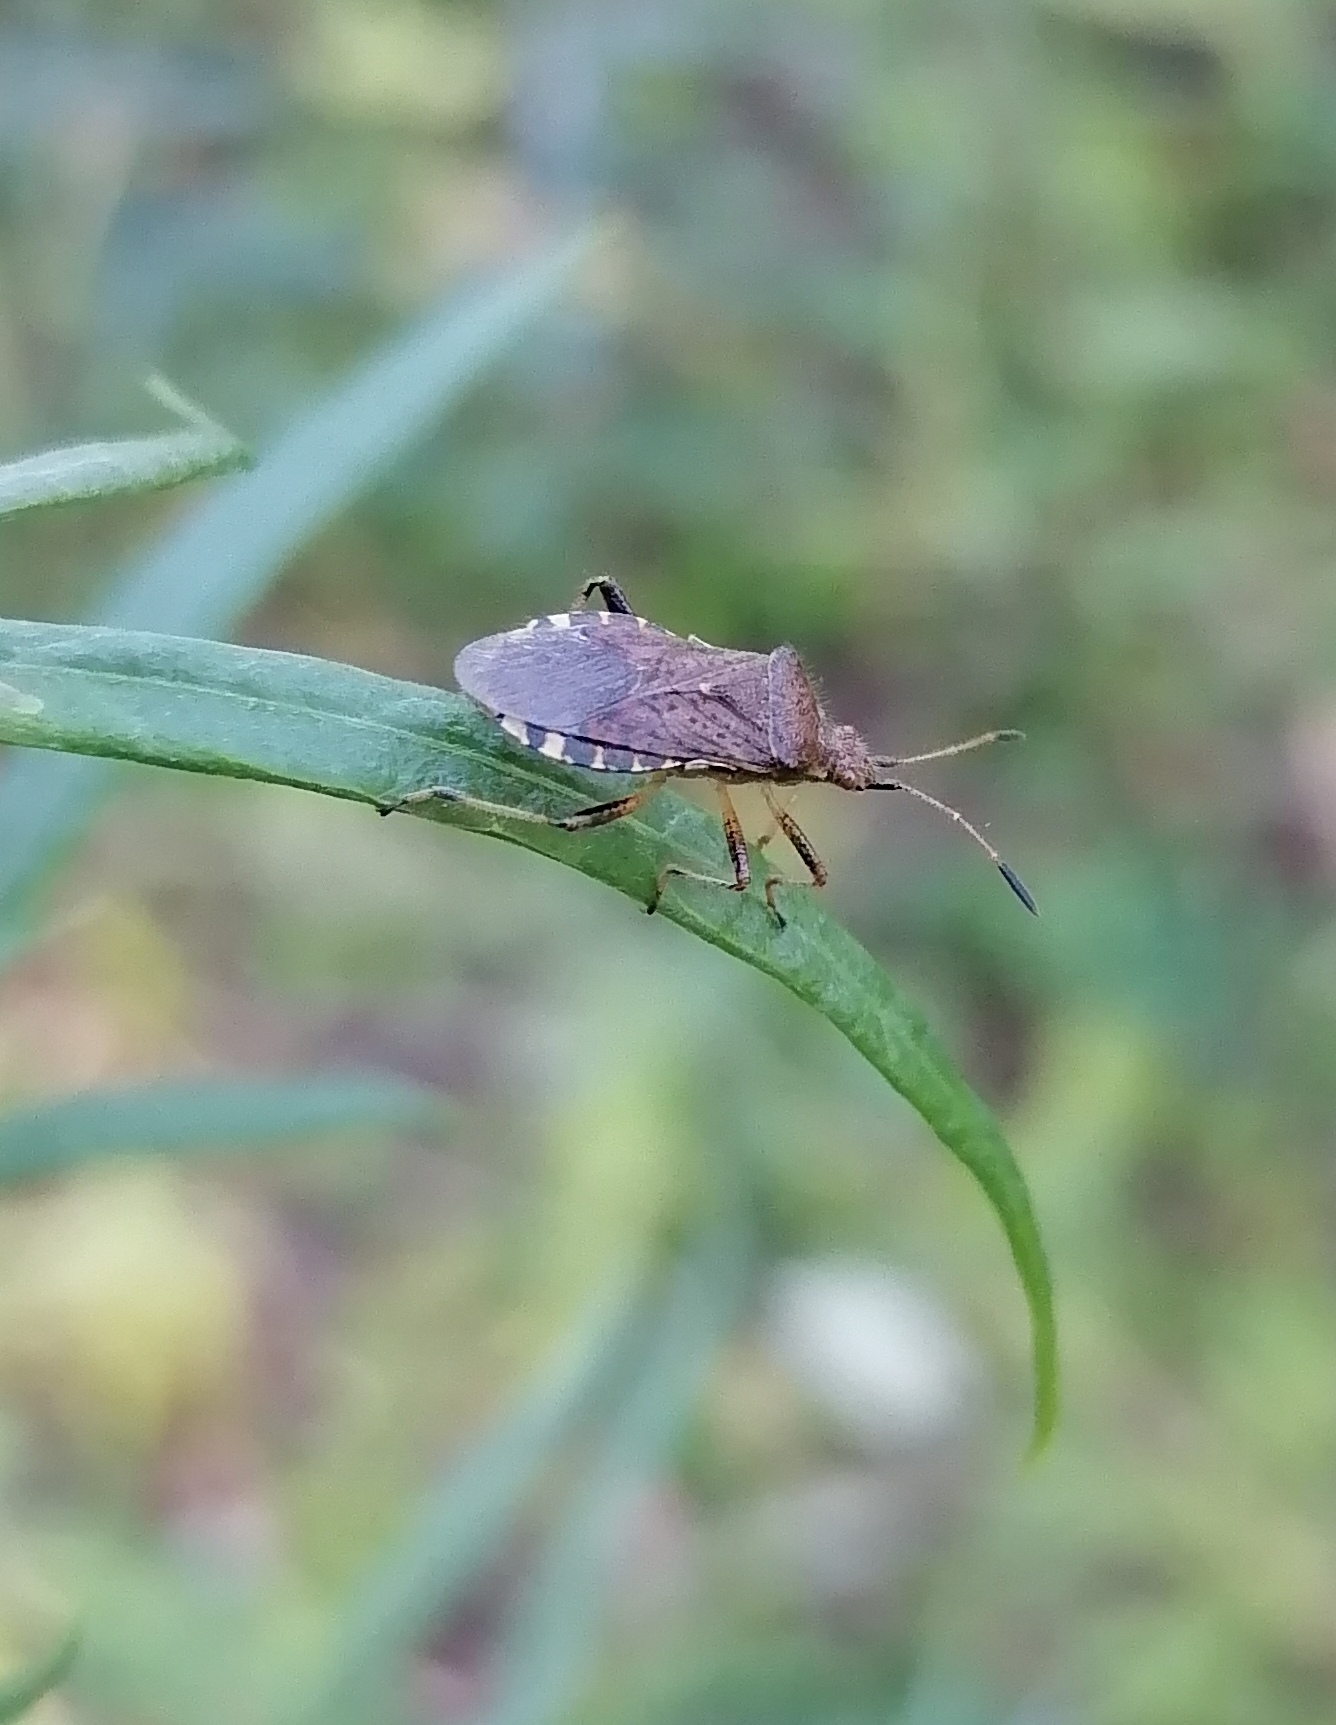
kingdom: Animalia
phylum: Arthropoda
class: Insecta
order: Hemiptera
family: Rhopalidae
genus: Rhopalus
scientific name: Rhopalus latus
